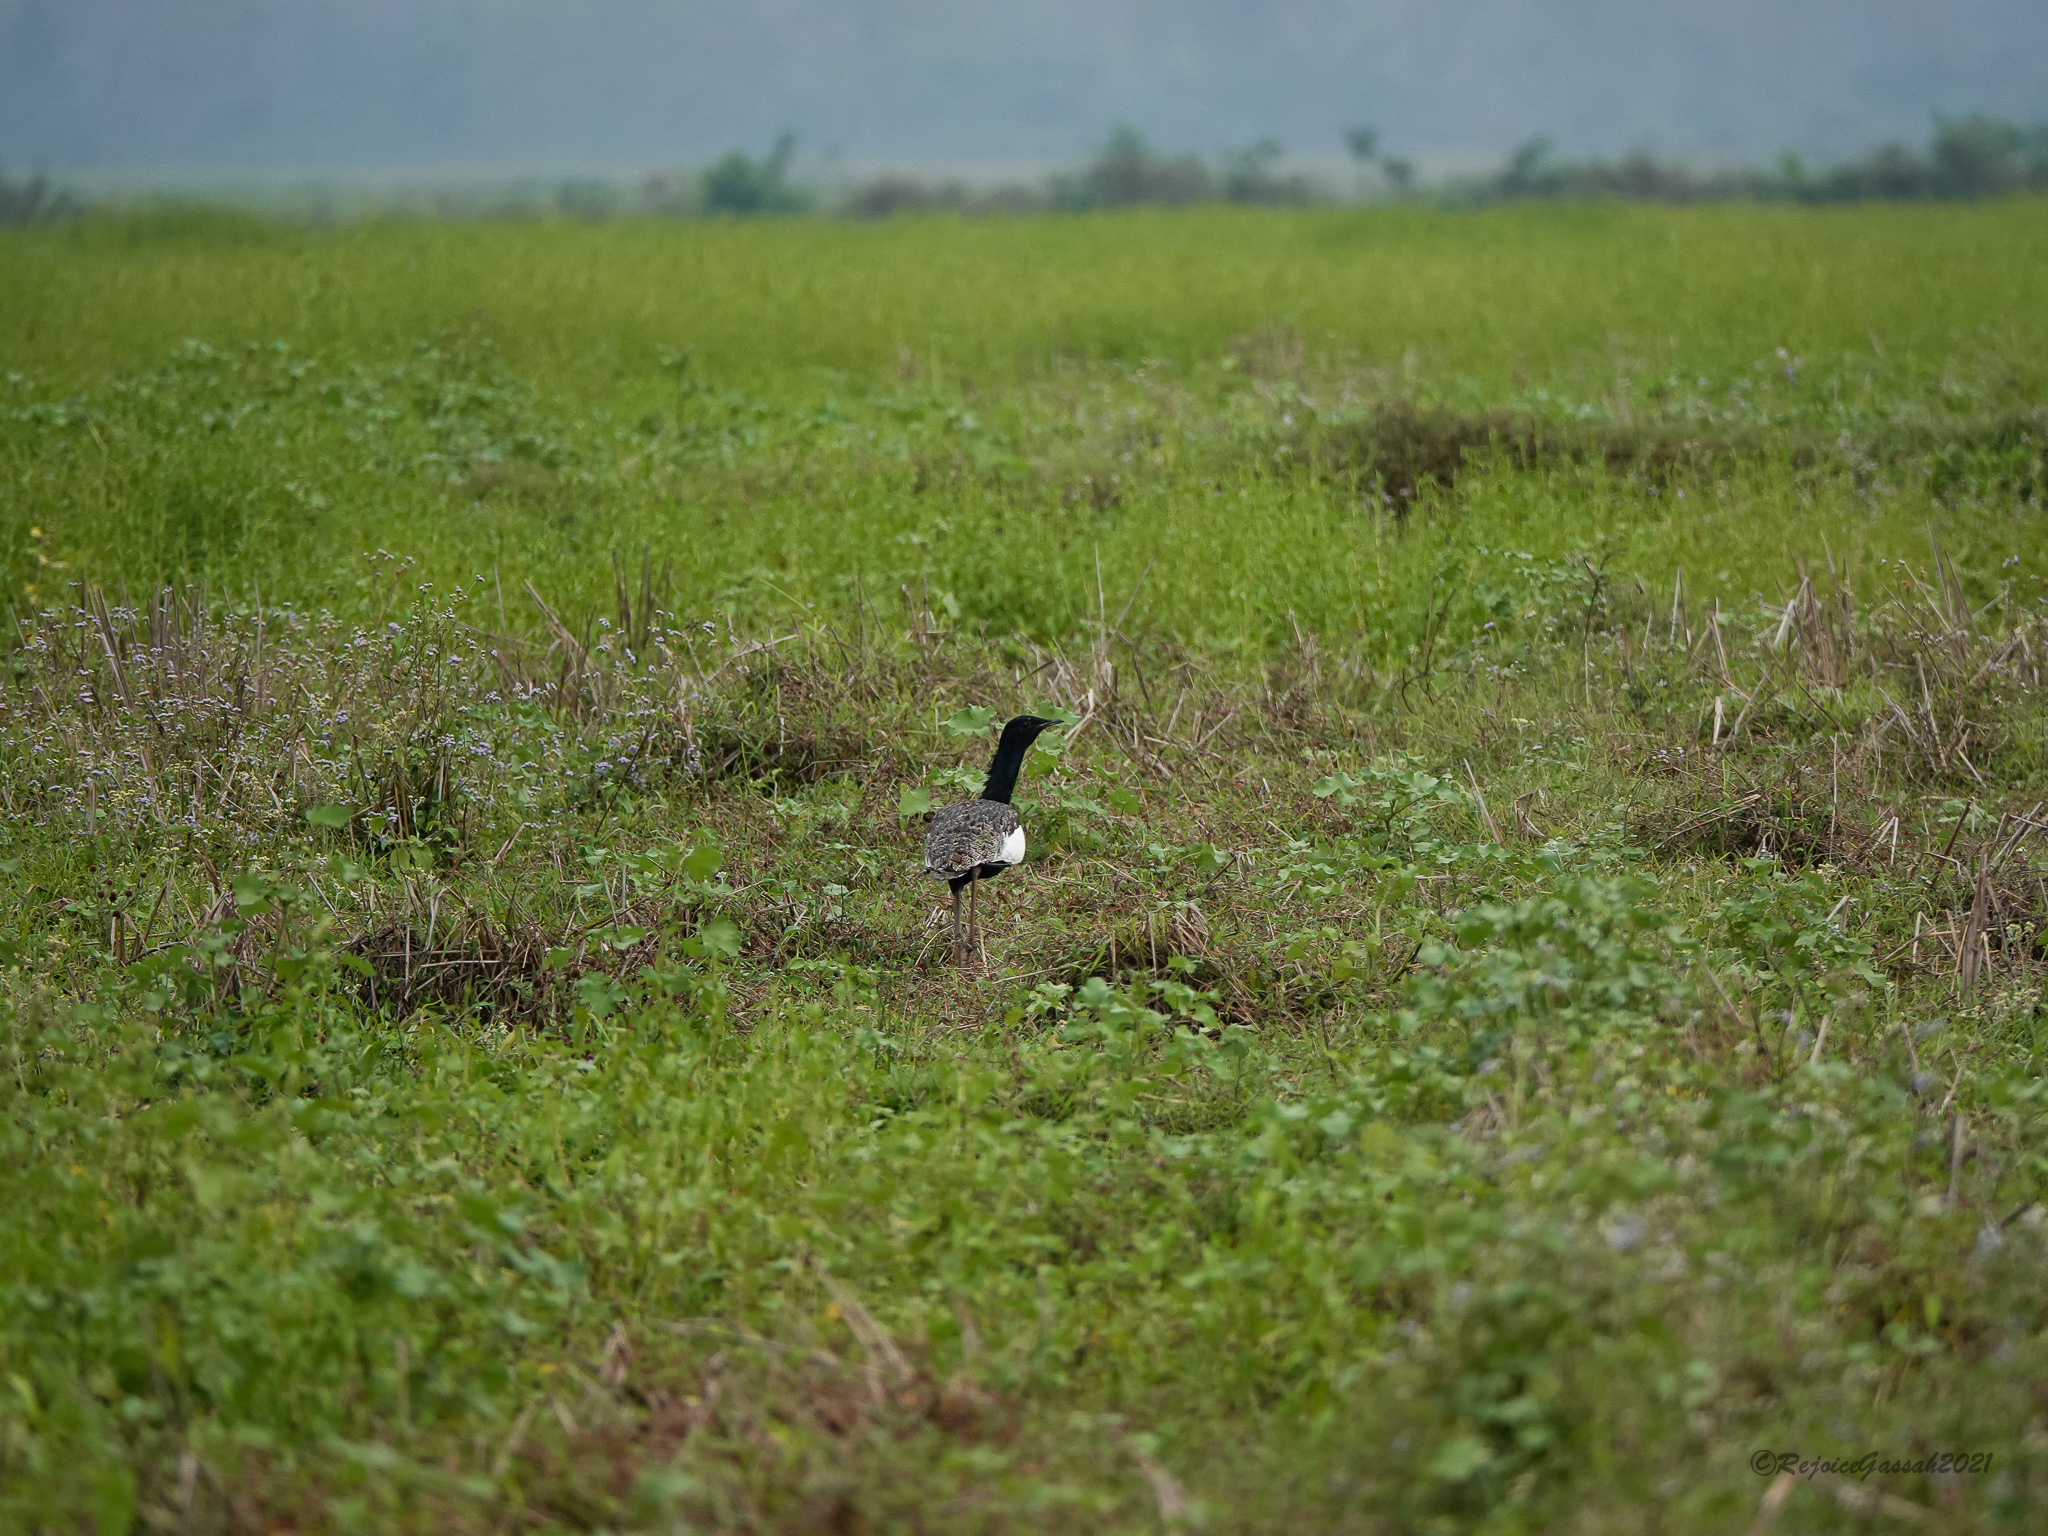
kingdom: Animalia
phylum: Chordata
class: Aves
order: Otidiformes
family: Otididae
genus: Houbaropsis
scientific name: Houbaropsis bengalensis
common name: Bengal florican
